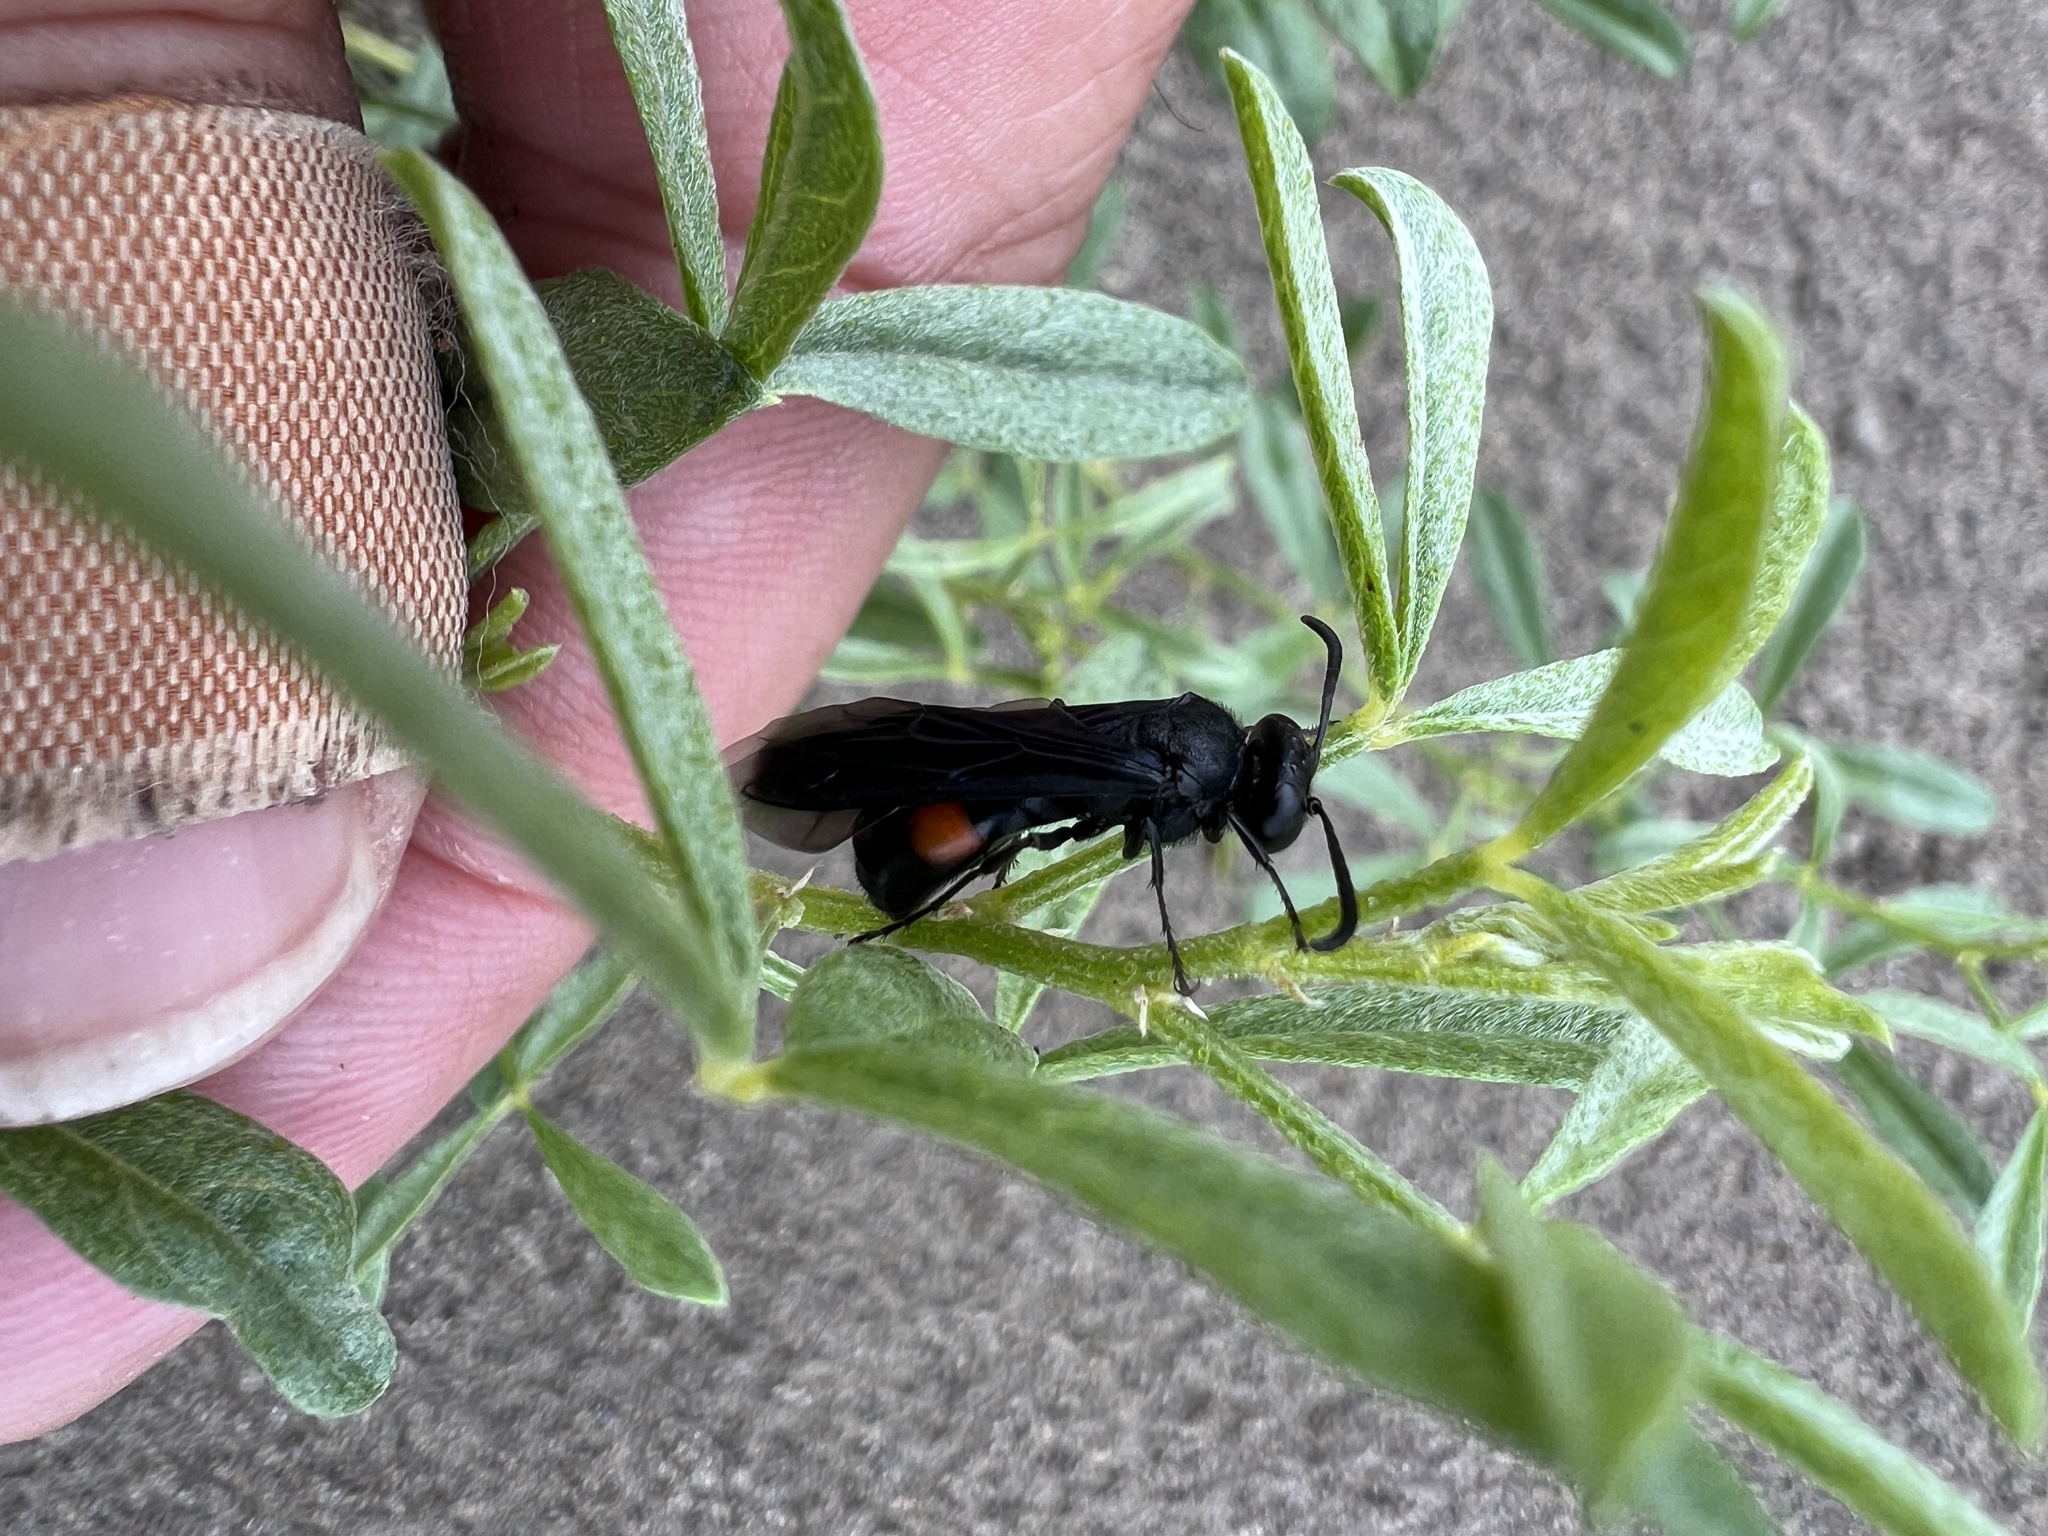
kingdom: Animalia
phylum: Arthropoda
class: Insecta
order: Hymenoptera
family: Crabronidae
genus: Stizoides
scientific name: Stizoides renicinctus
